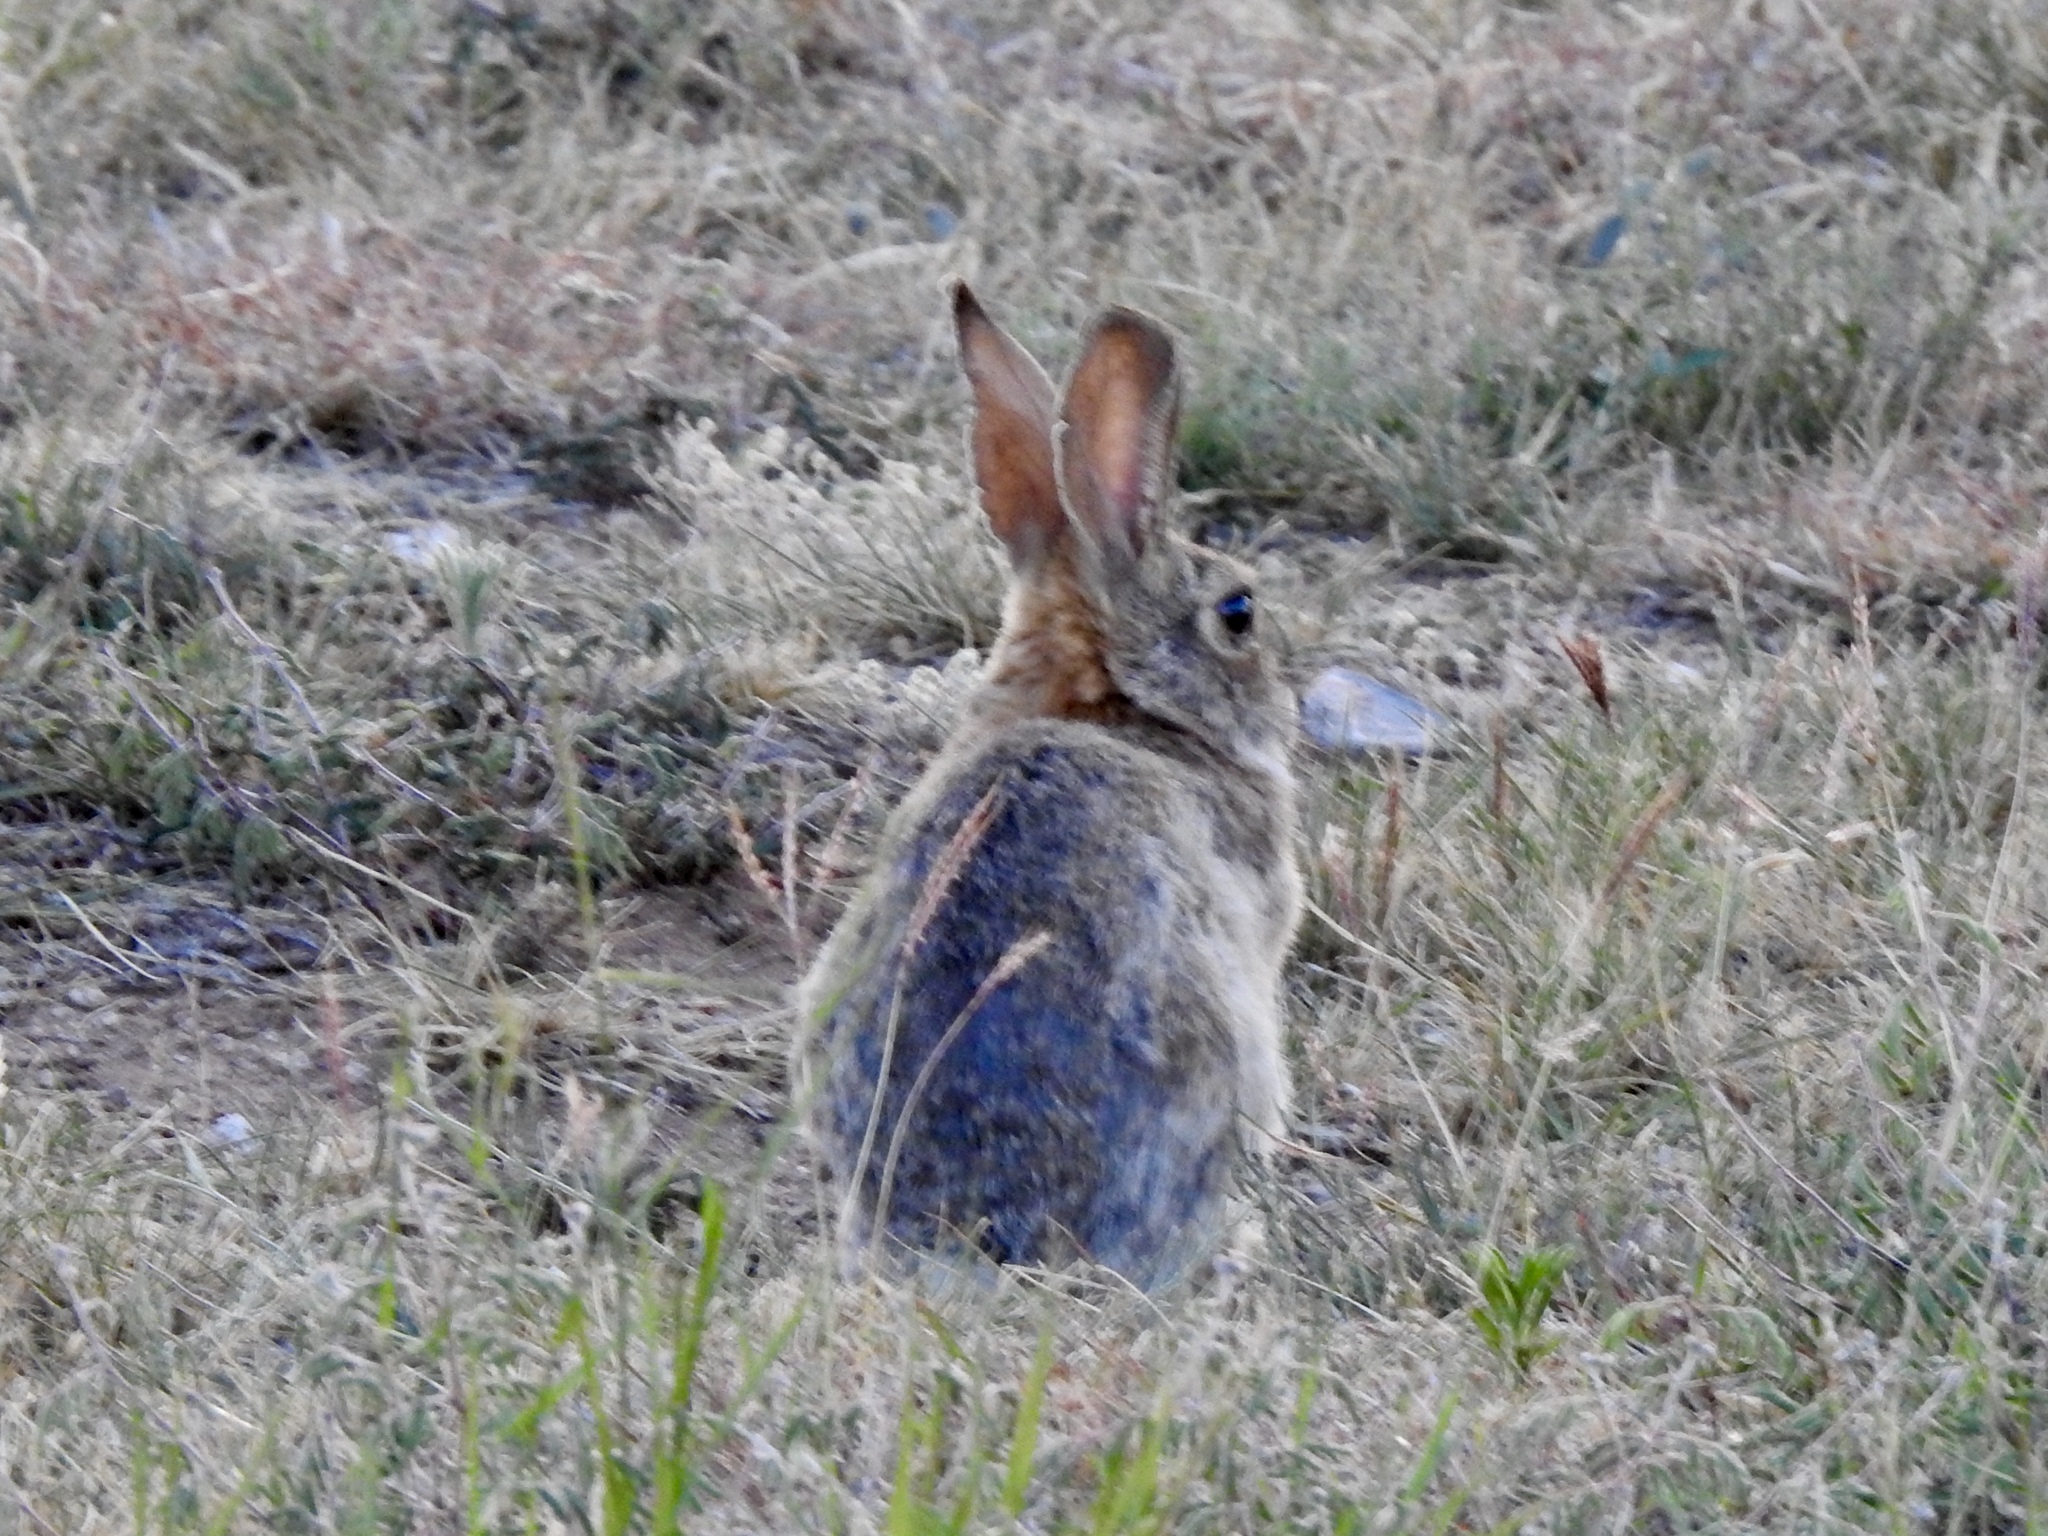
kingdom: Animalia
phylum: Chordata
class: Mammalia
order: Lagomorpha
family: Leporidae
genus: Sylvilagus
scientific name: Sylvilagus audubonii
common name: Desert cottontail
